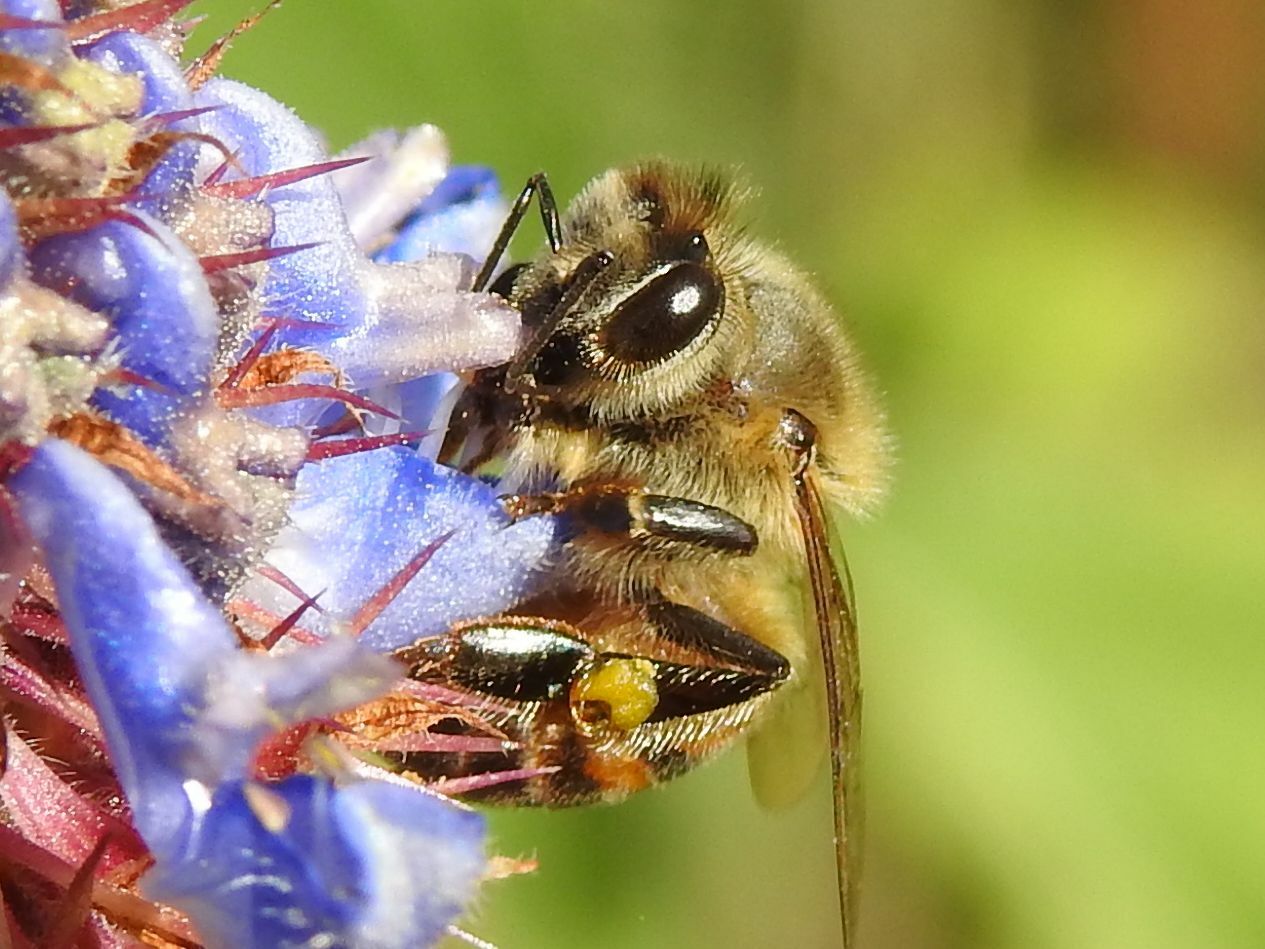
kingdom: Animalia
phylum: Arthropoda
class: Insecta
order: Hymenoptera
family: Apidae
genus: Apis
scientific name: Apis mellifera
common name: Honey bee
